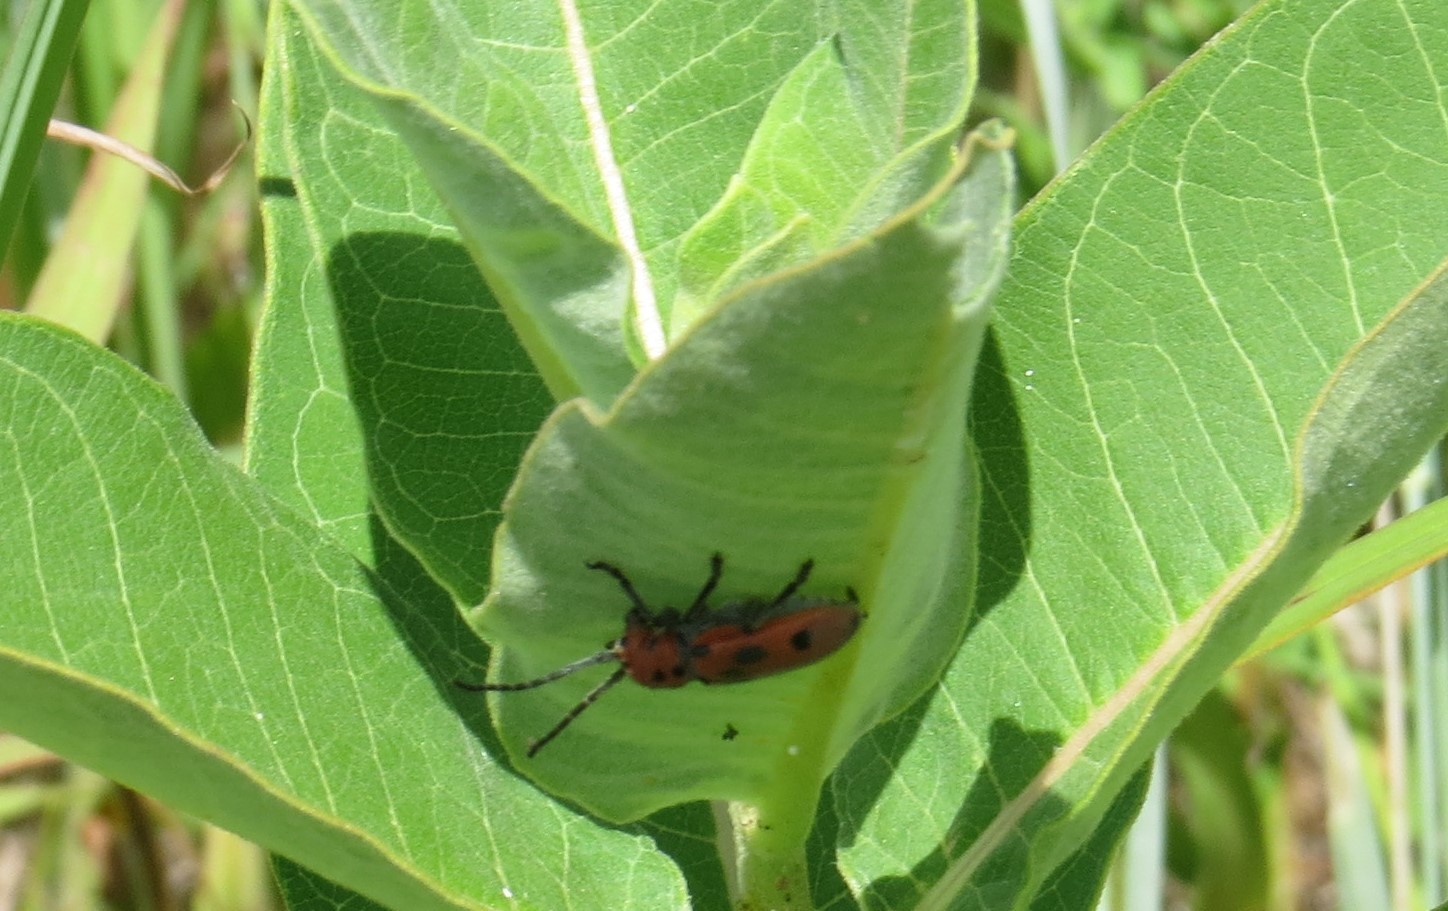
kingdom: Animalia
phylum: Arthropoda
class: Insecta
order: Coleoptera
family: Cerambycidae
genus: Tetraopes
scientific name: Tetraopes tetrophthalmus
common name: Red milkweed beetle
